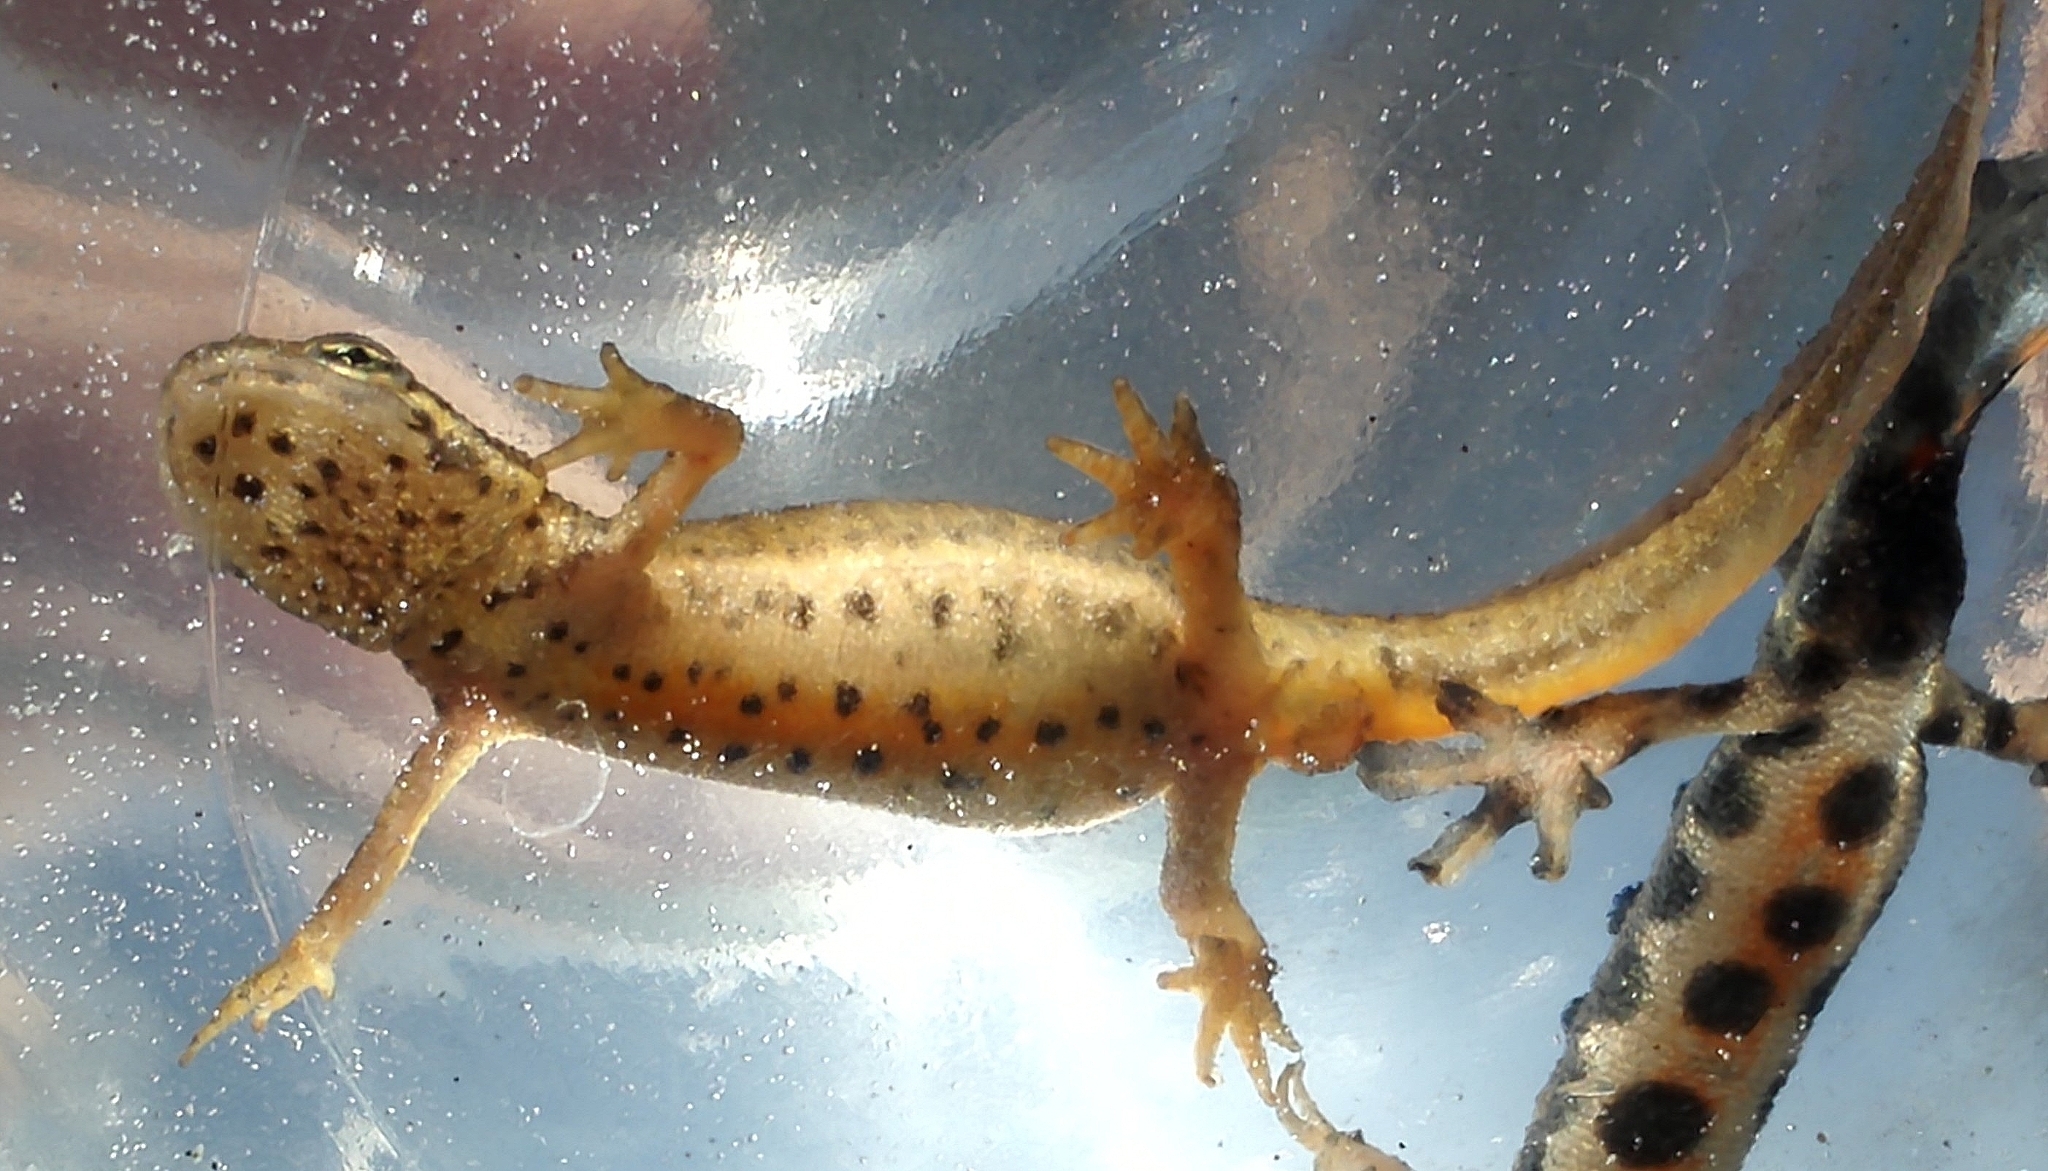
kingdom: Animalia
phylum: Chordata
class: Amphibia
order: Caudata
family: Salamandridae
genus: Lissotriton
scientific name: Lissotriton vulgaris
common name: Smooth newt
